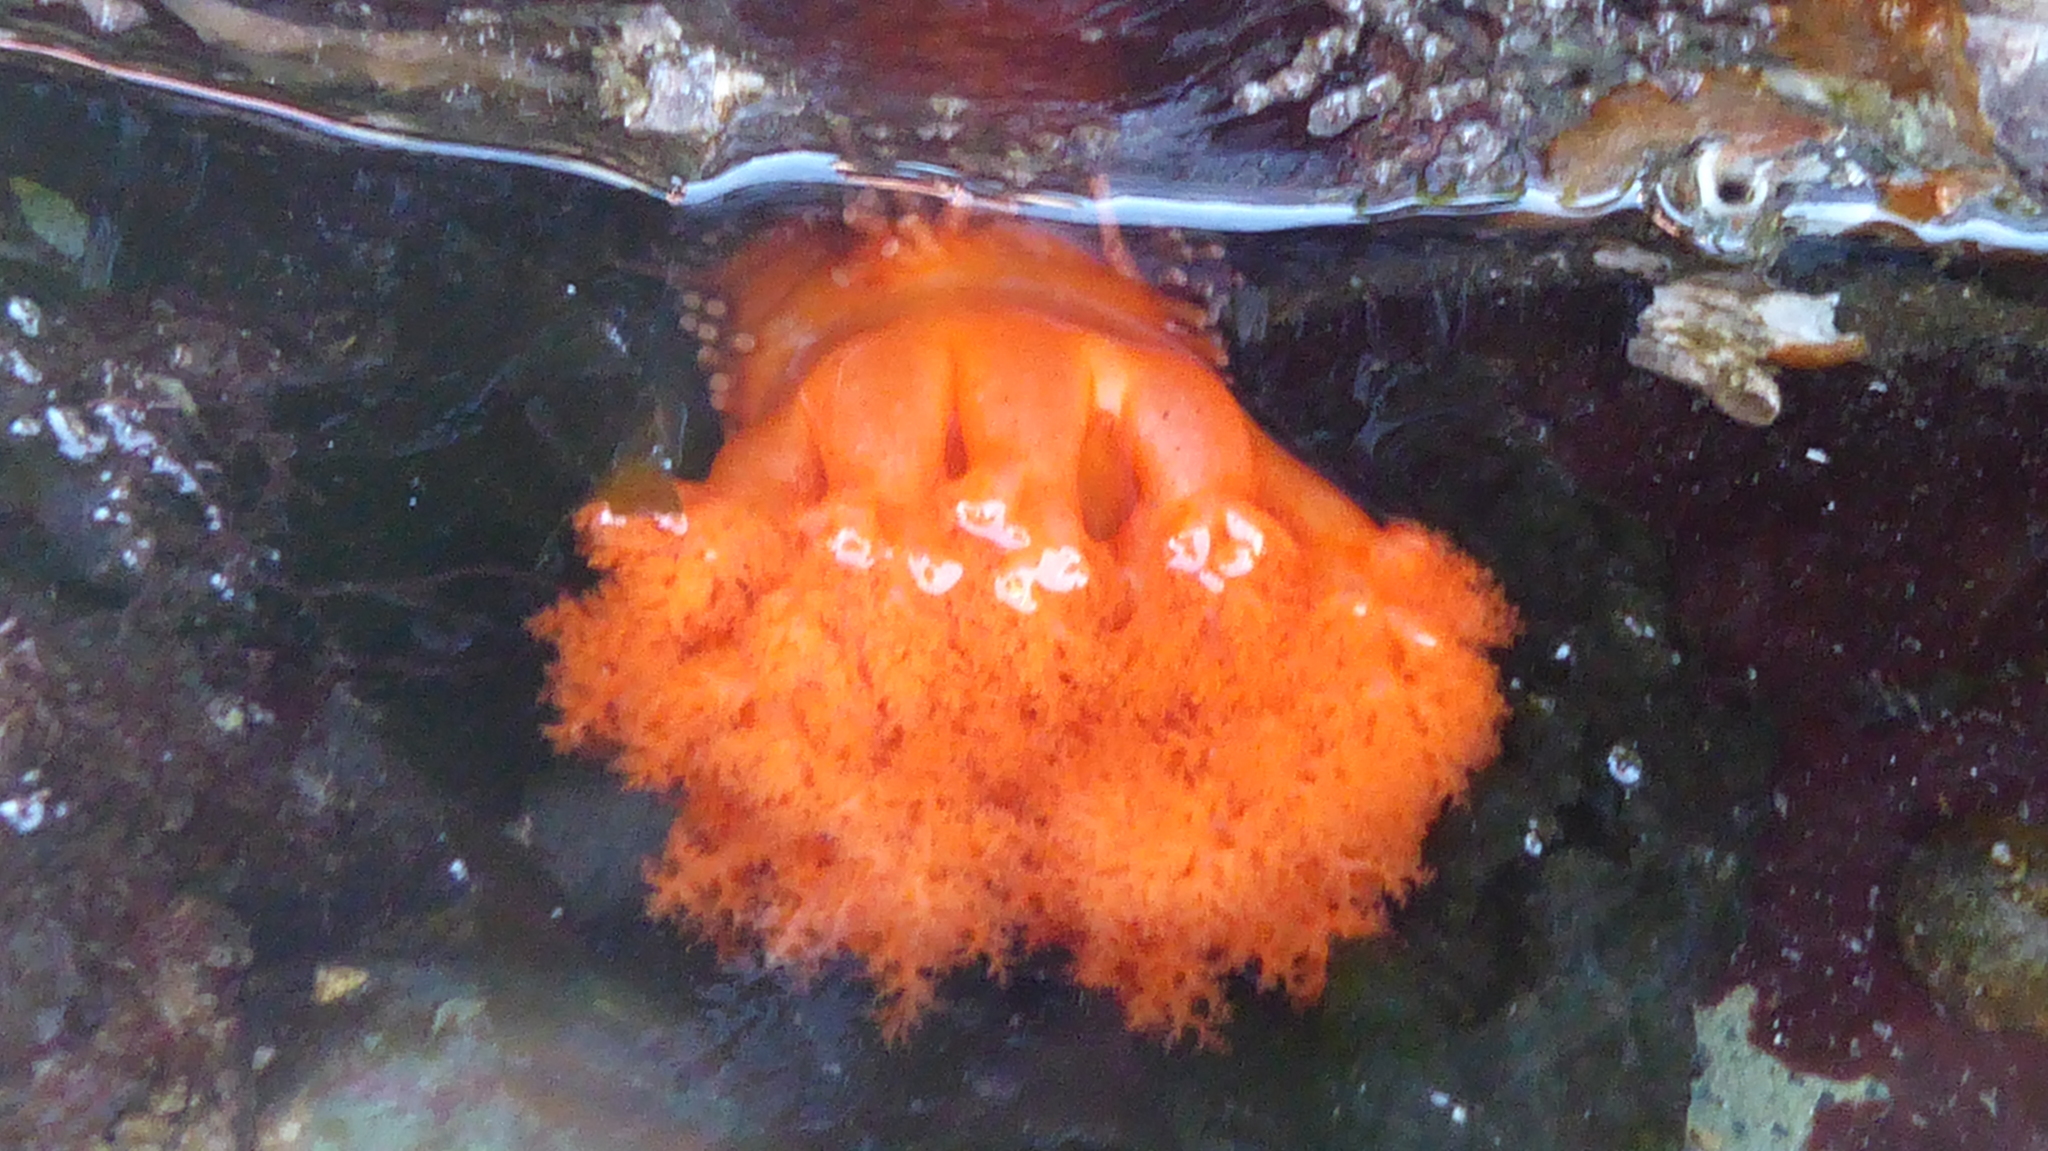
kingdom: Animalia
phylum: Echinodermata
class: Holothuroidea
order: Dendrochirotida
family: Cucumariidae
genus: Cucumaria
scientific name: Cucumaria miniata
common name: Orange sea cucumber
